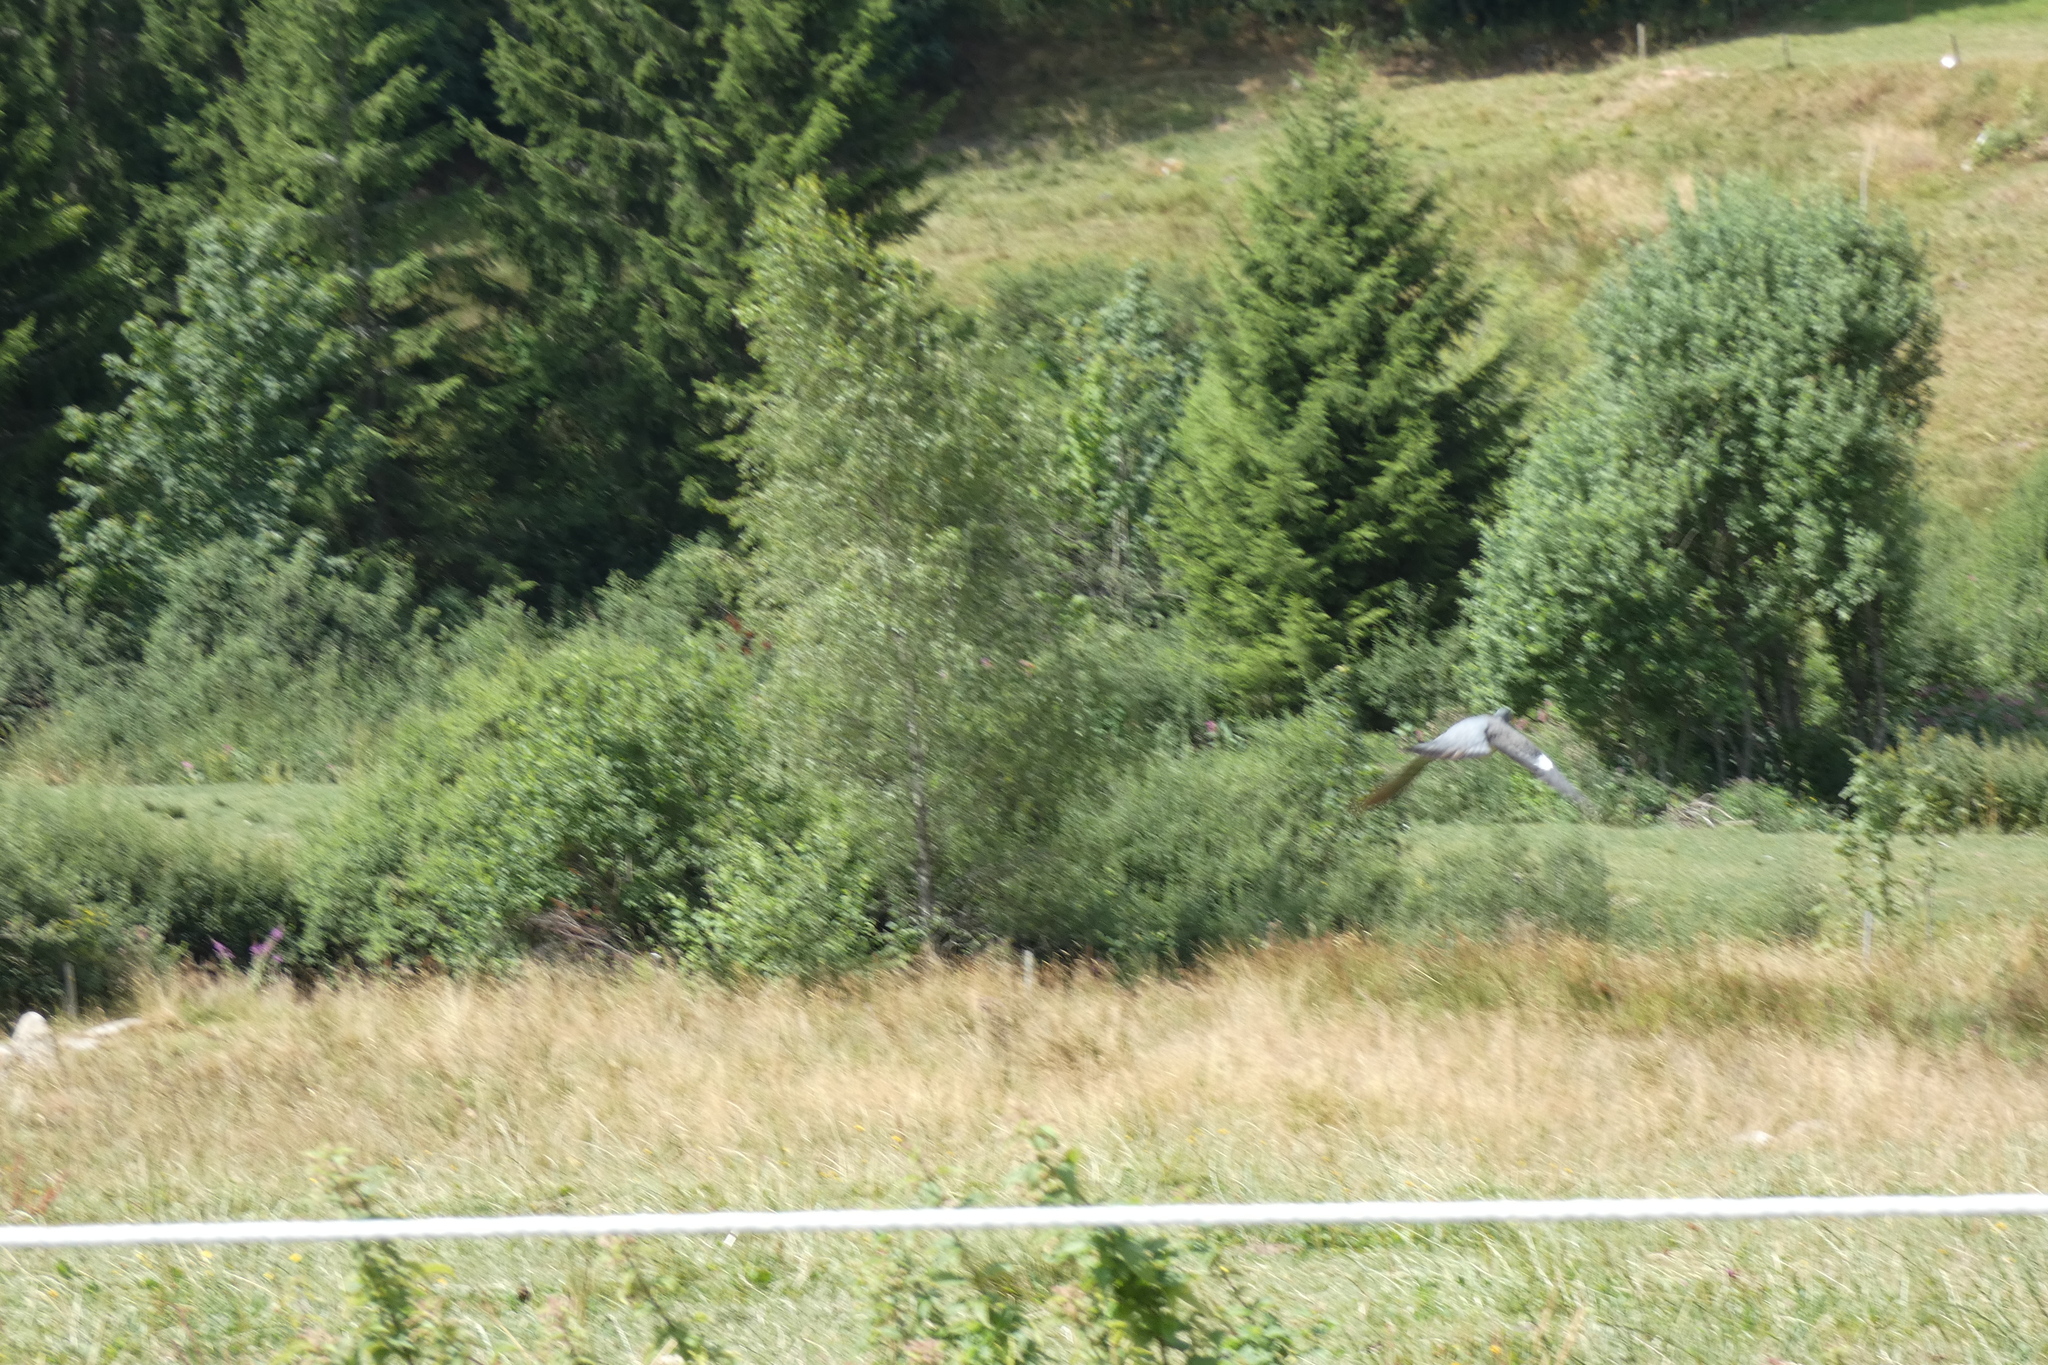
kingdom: Animalia
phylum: Chordata
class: Aves
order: Columbiformes
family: Columbidae
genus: Columba
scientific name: Columba palumbus
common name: Common wood pigeon
